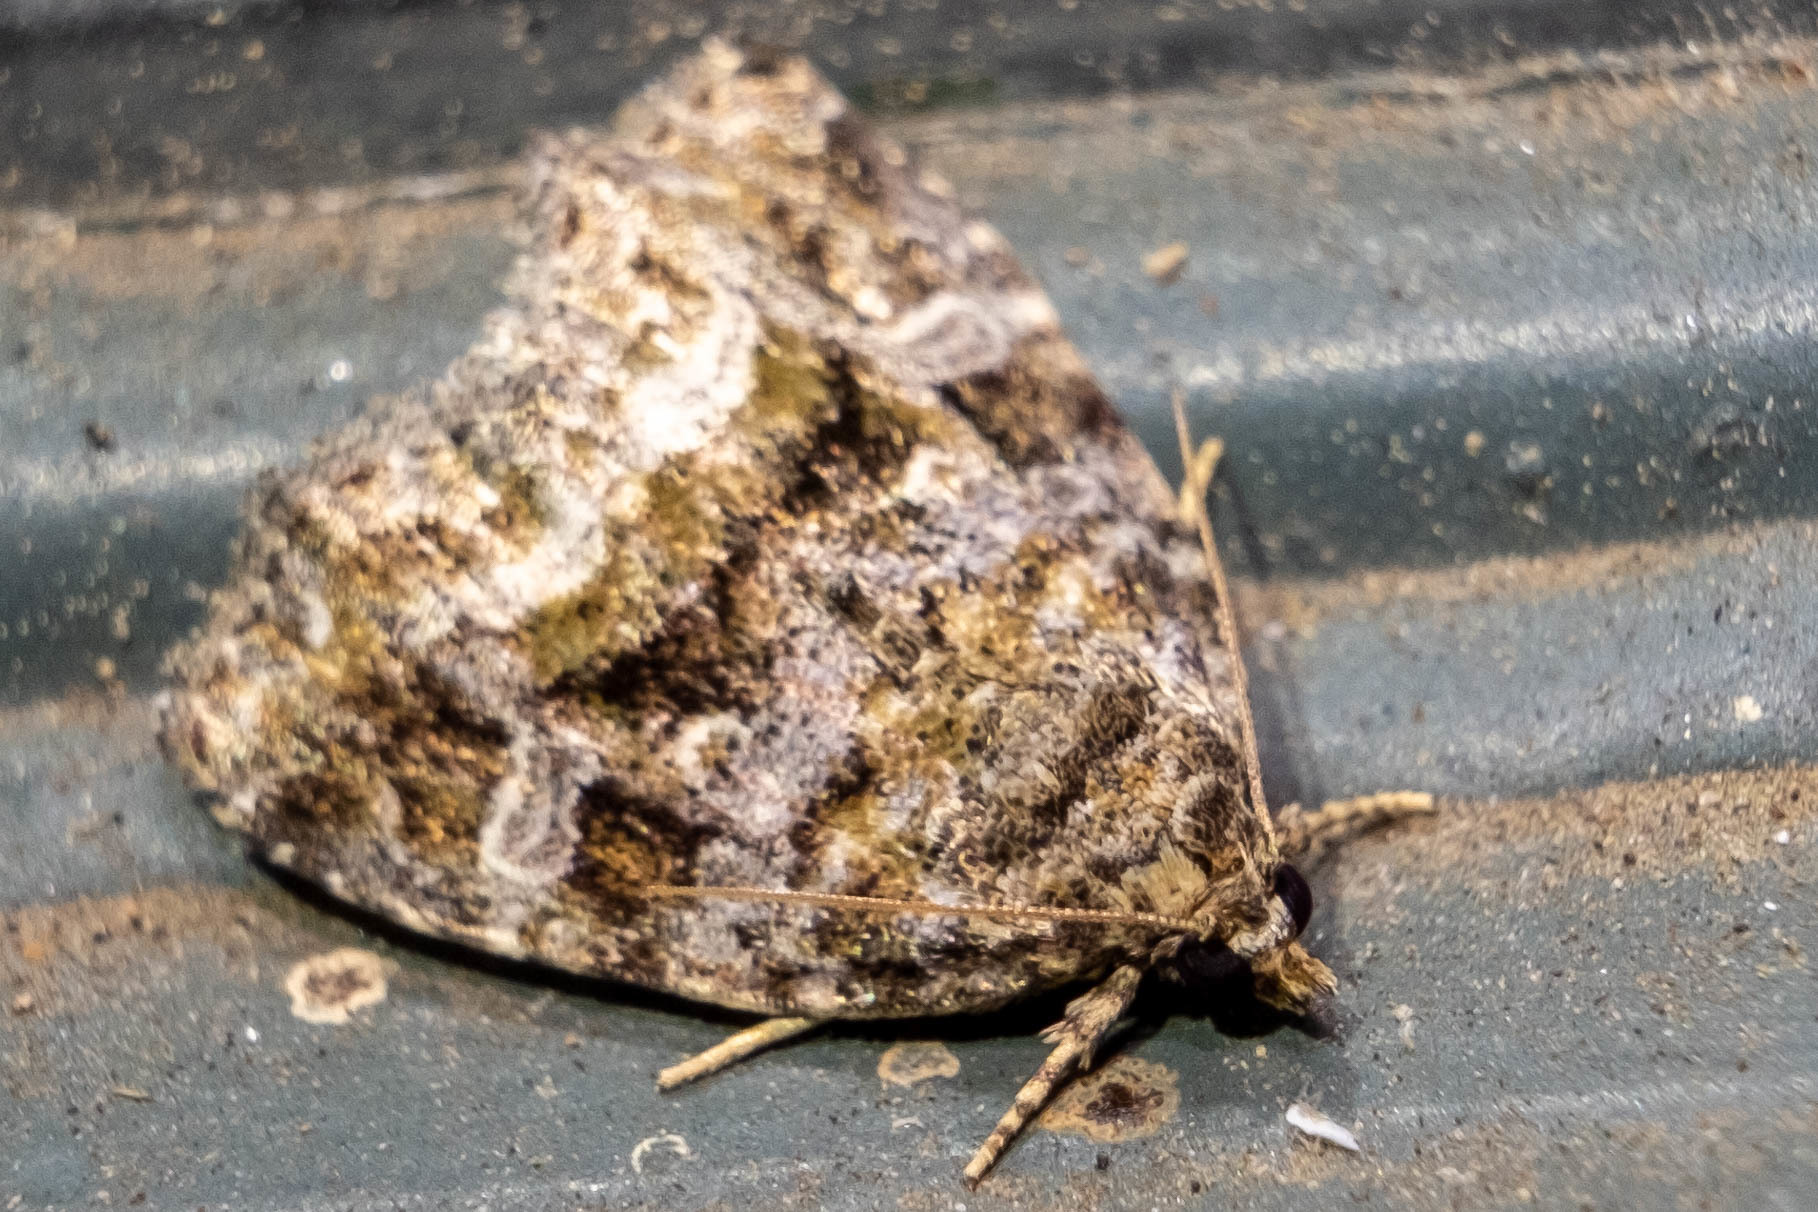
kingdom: Animalia
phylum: Arthropoda
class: Insecta
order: Lepidoptera
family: Noctuidae
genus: Protodeltote
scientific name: Protodeltote muscosula
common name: Large mossy glyph
